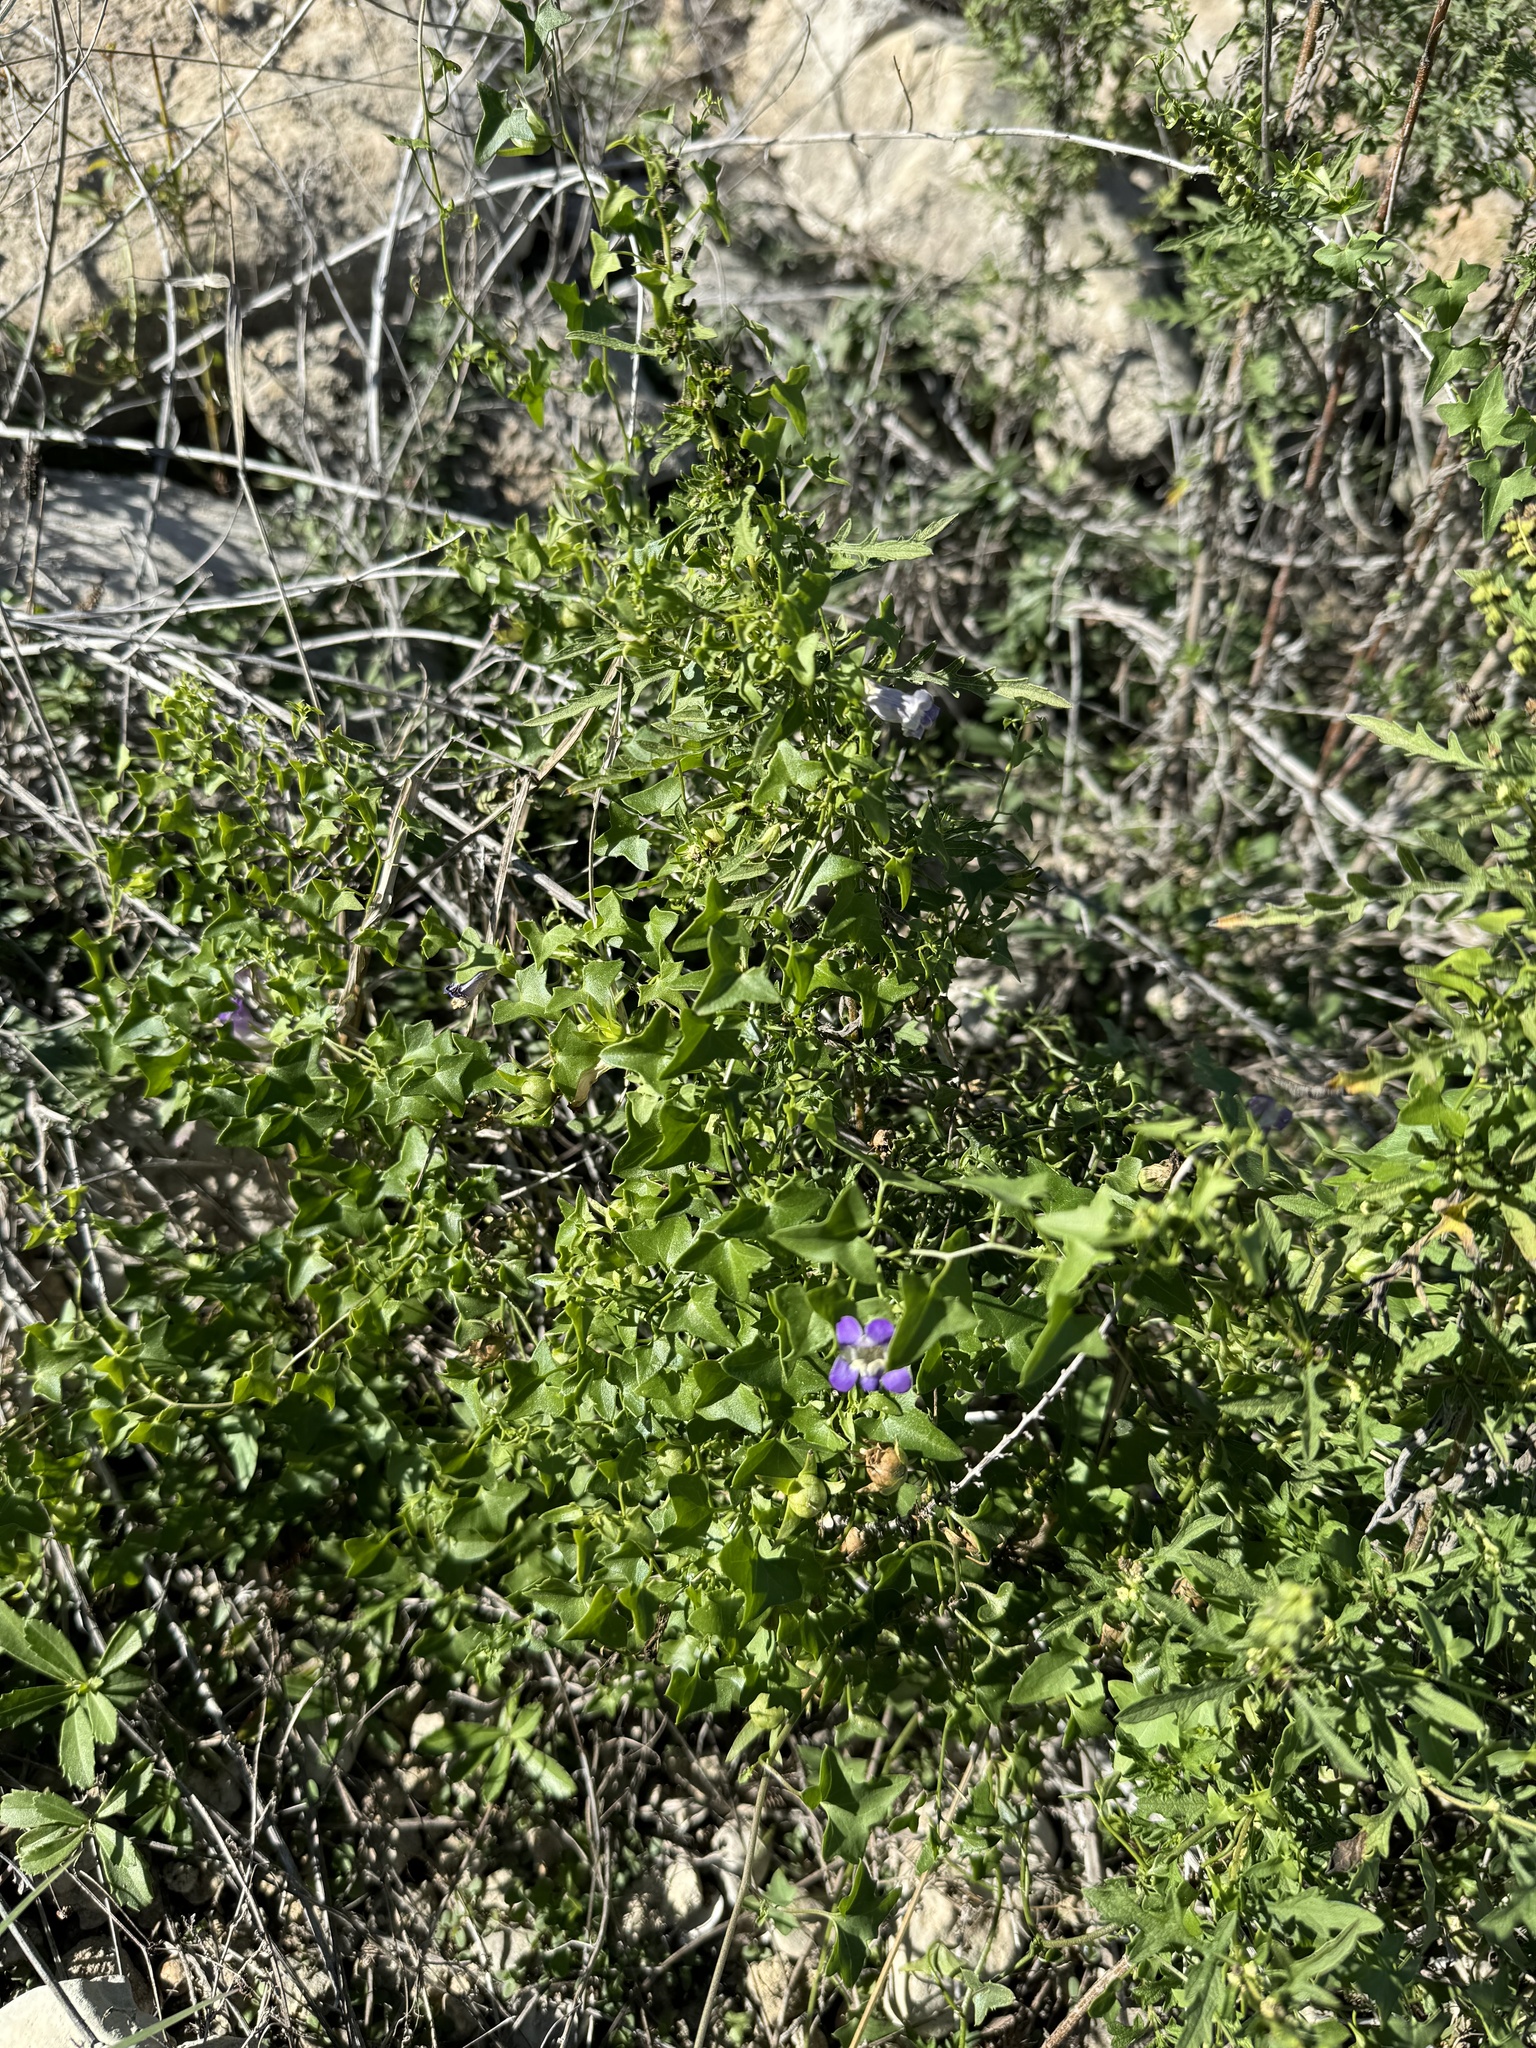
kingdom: Plantae
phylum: Tracheophyta
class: Magnoliopsida
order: Lamiales
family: Plantaginaceae
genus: Maurandella
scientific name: Maurandella antirrhiniflora
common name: Violet twining-snapdragon
